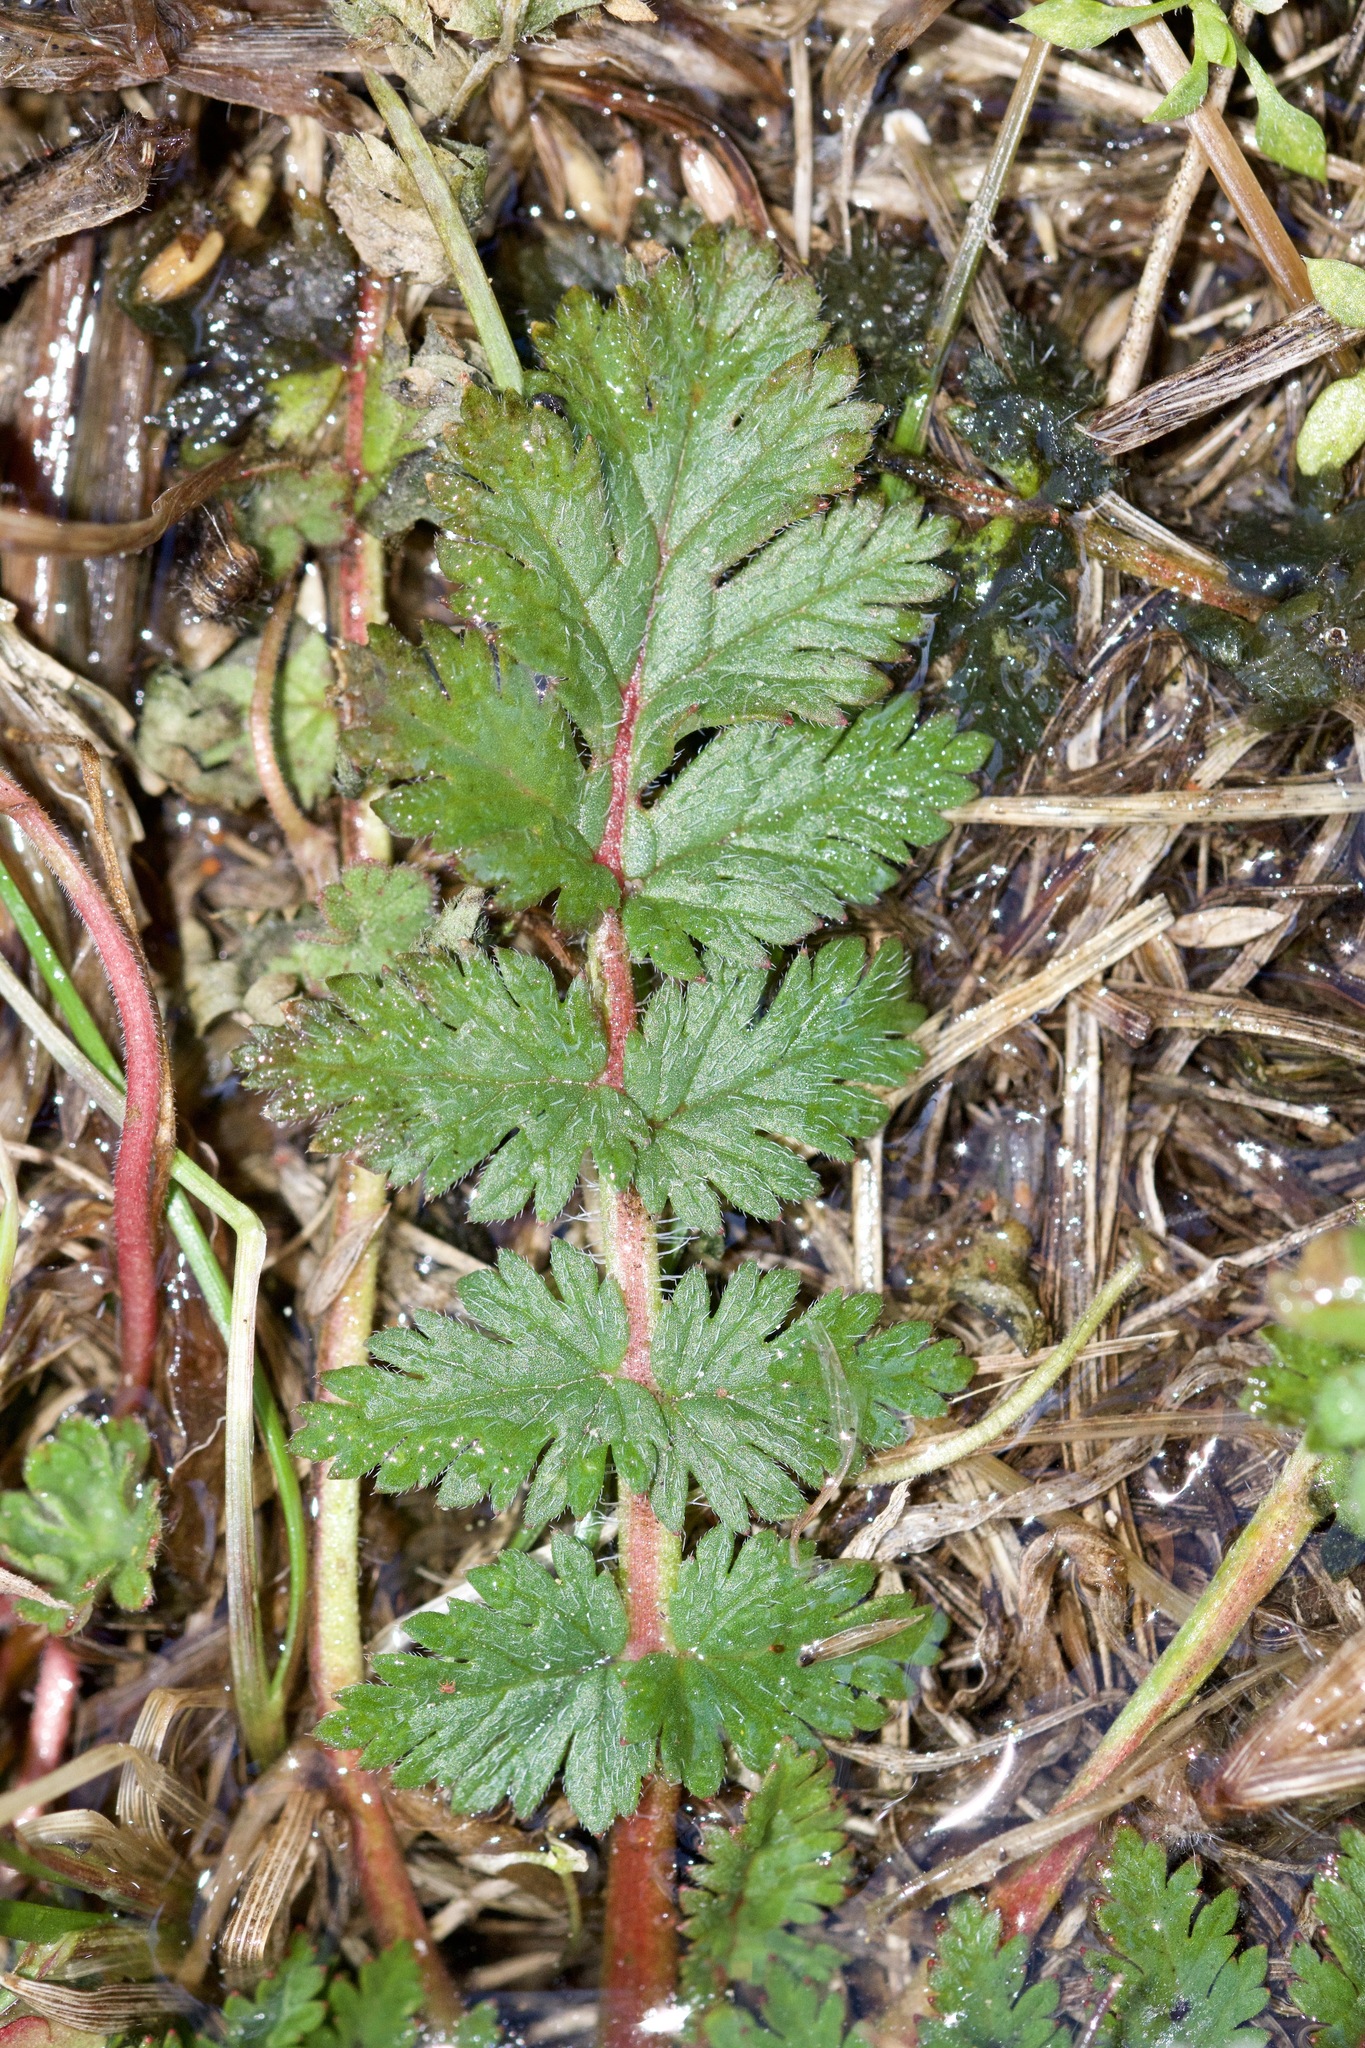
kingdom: Plantae
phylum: Tracheophyta
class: Magnoliopsida
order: Geraniales
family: Geraniaceae
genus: Erodium
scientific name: Erodium cicutarium
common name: Common stork's-bill
